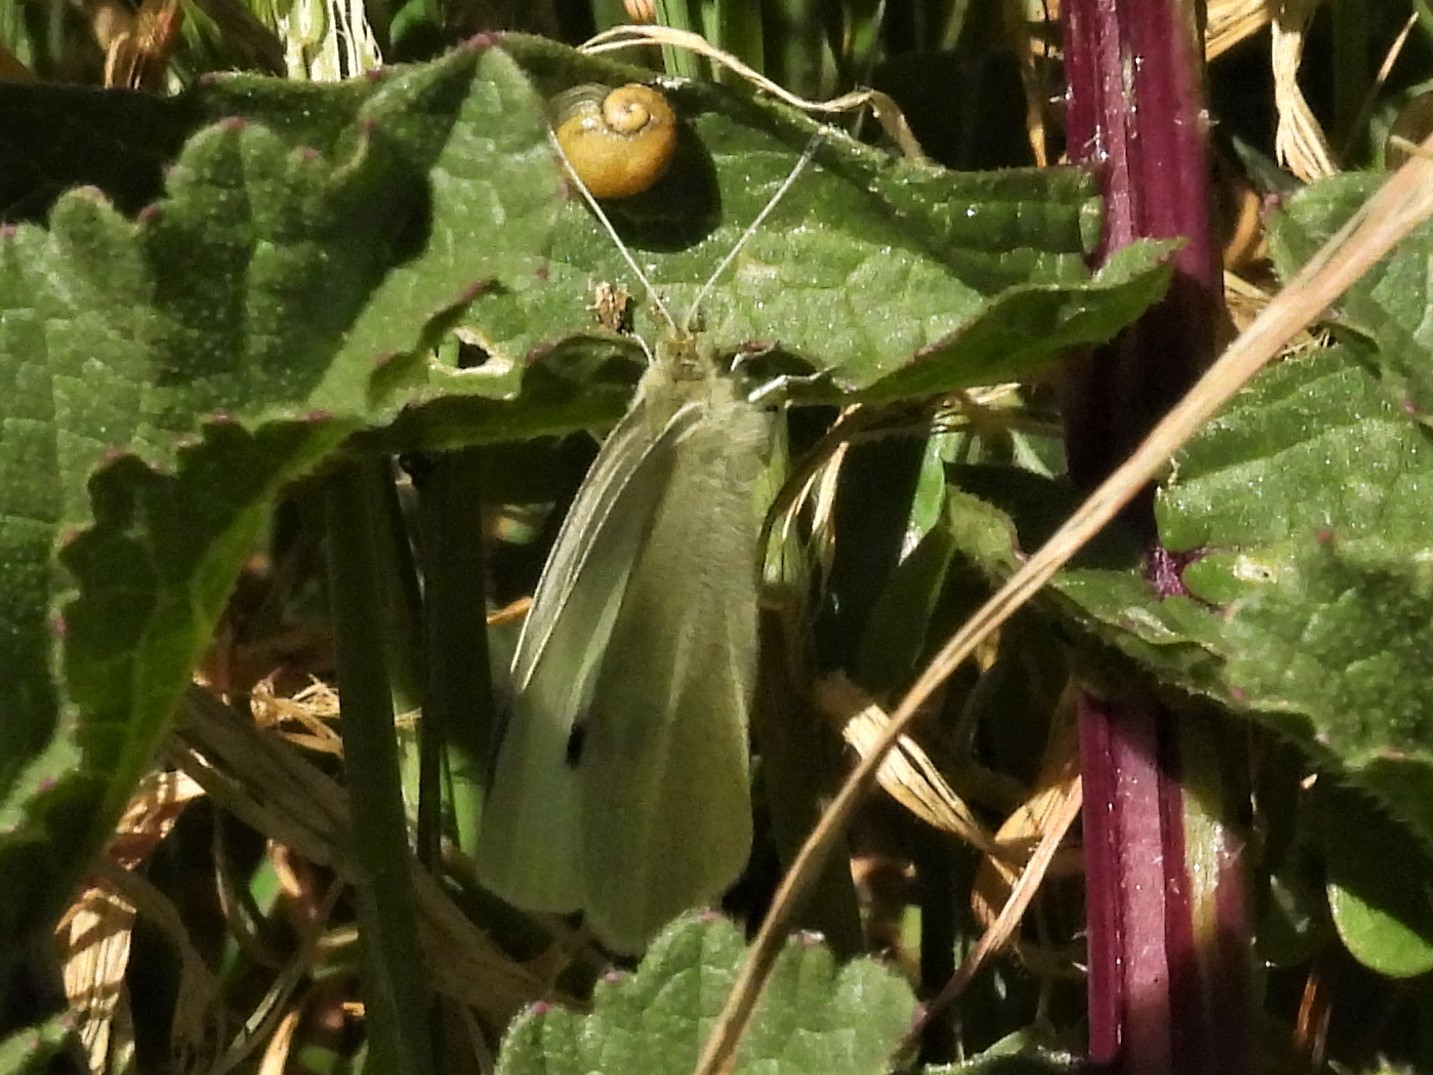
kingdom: Animalia
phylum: Arthropoda
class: Insecta
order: Lepidoptera
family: Pieridae
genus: Pieris
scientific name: Pieris rapae
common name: Small white
